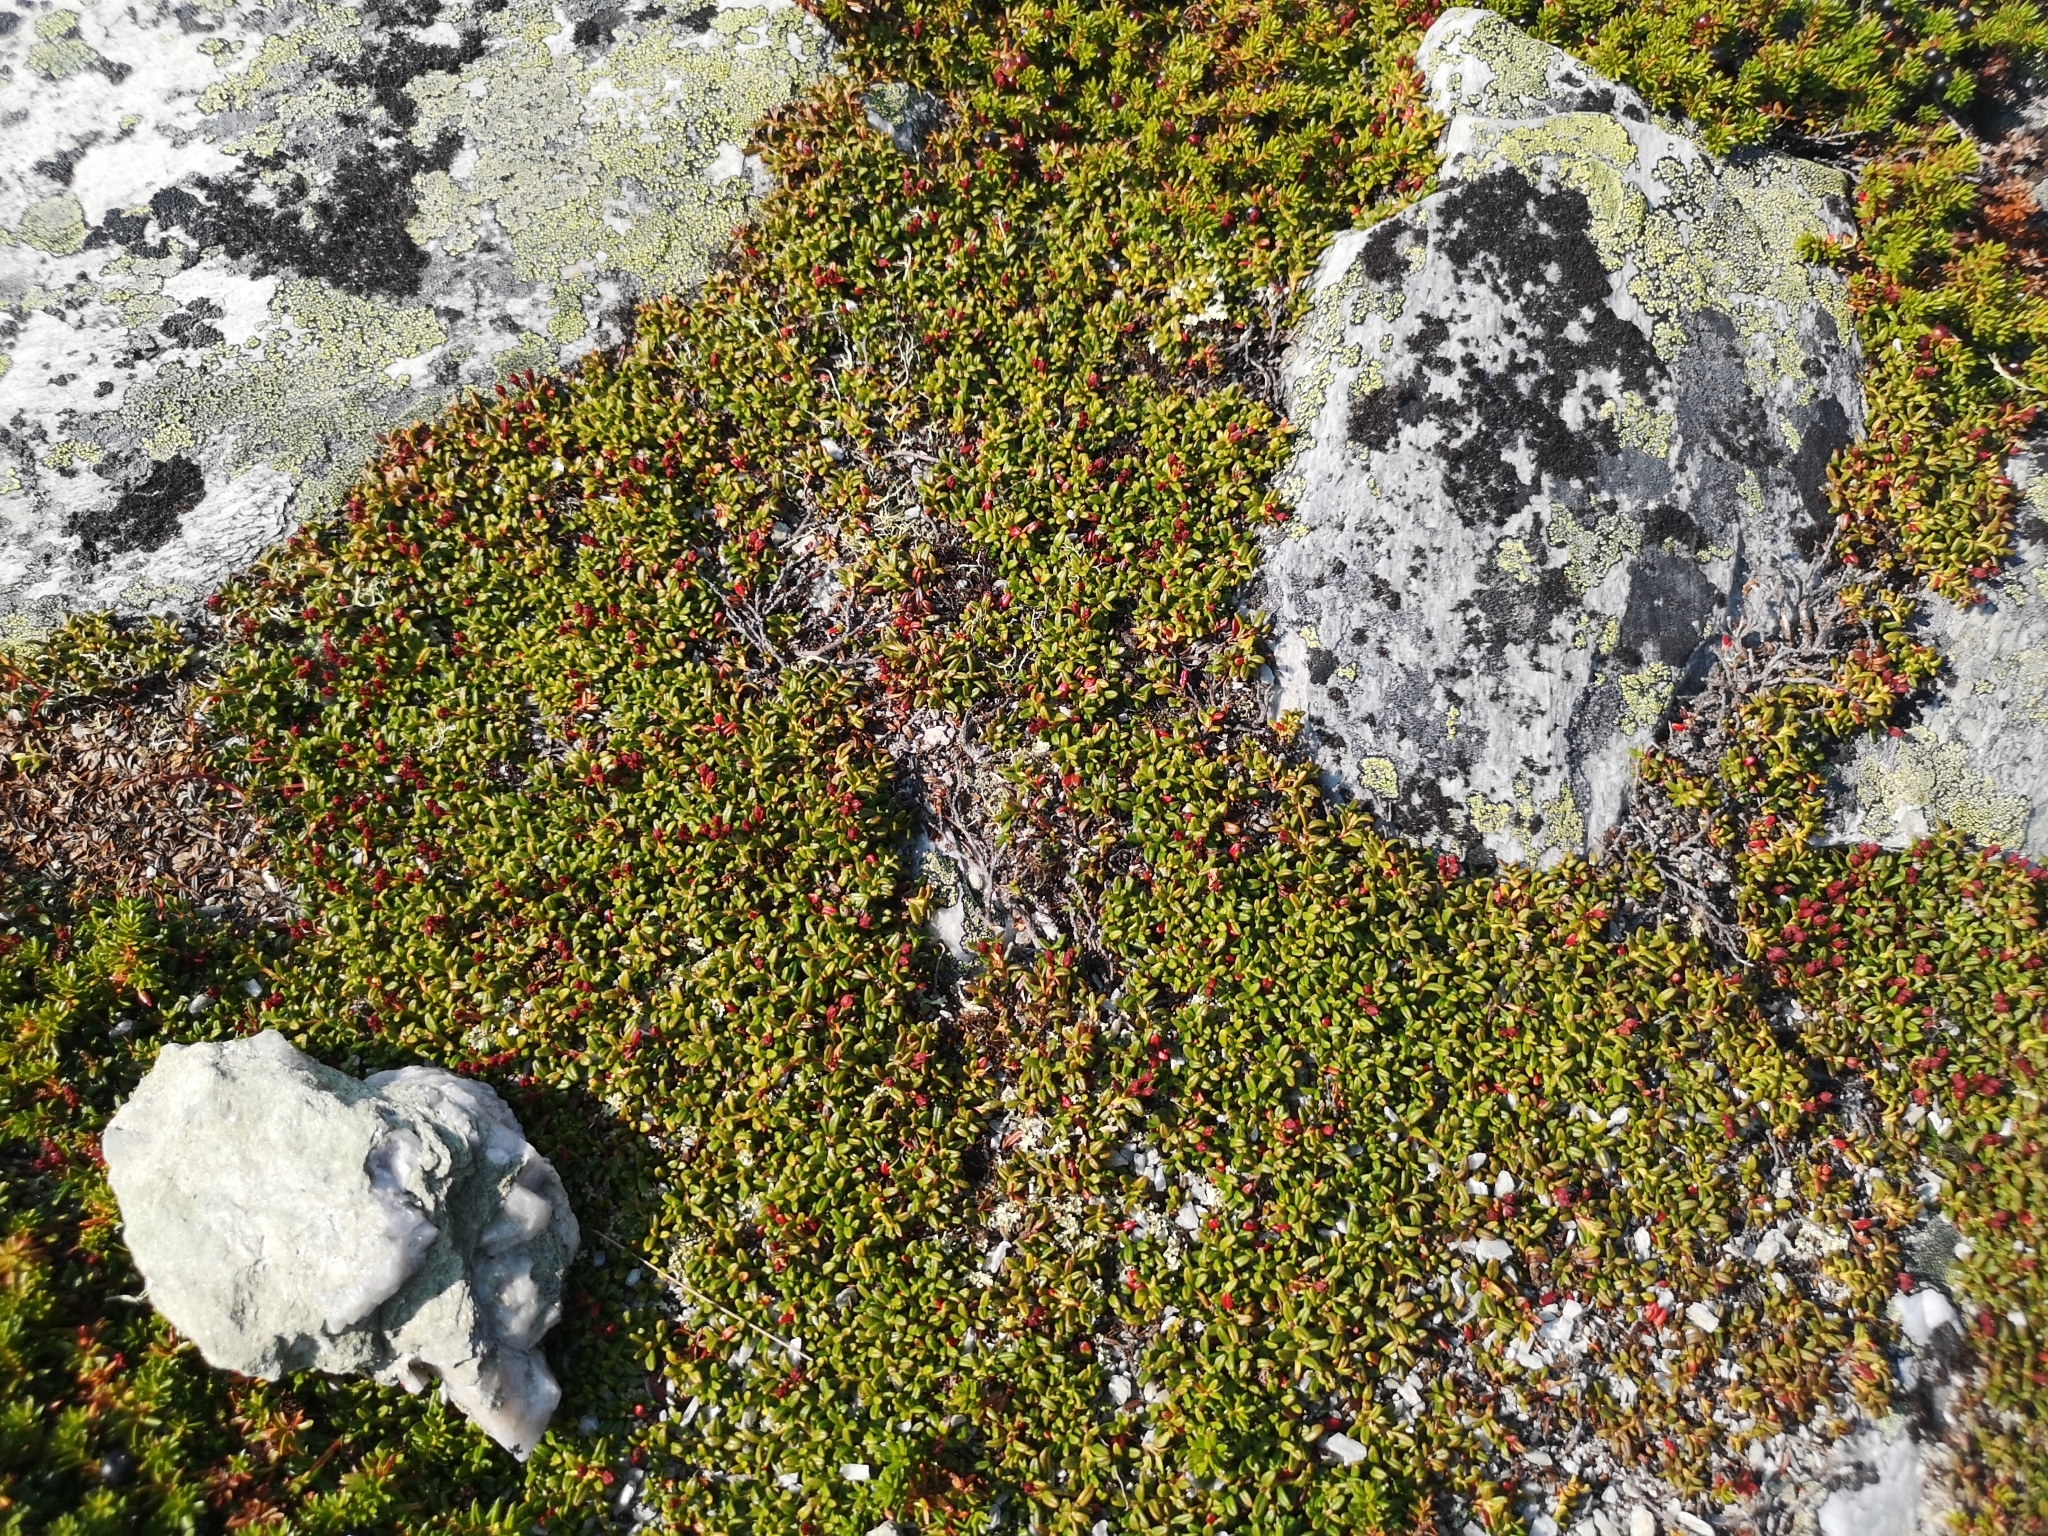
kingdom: Plantae
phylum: Tracheophyta
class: Magnoliopsida
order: Ericales
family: Ericaceae
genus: Kalmia
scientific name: Kalmia procumbens
